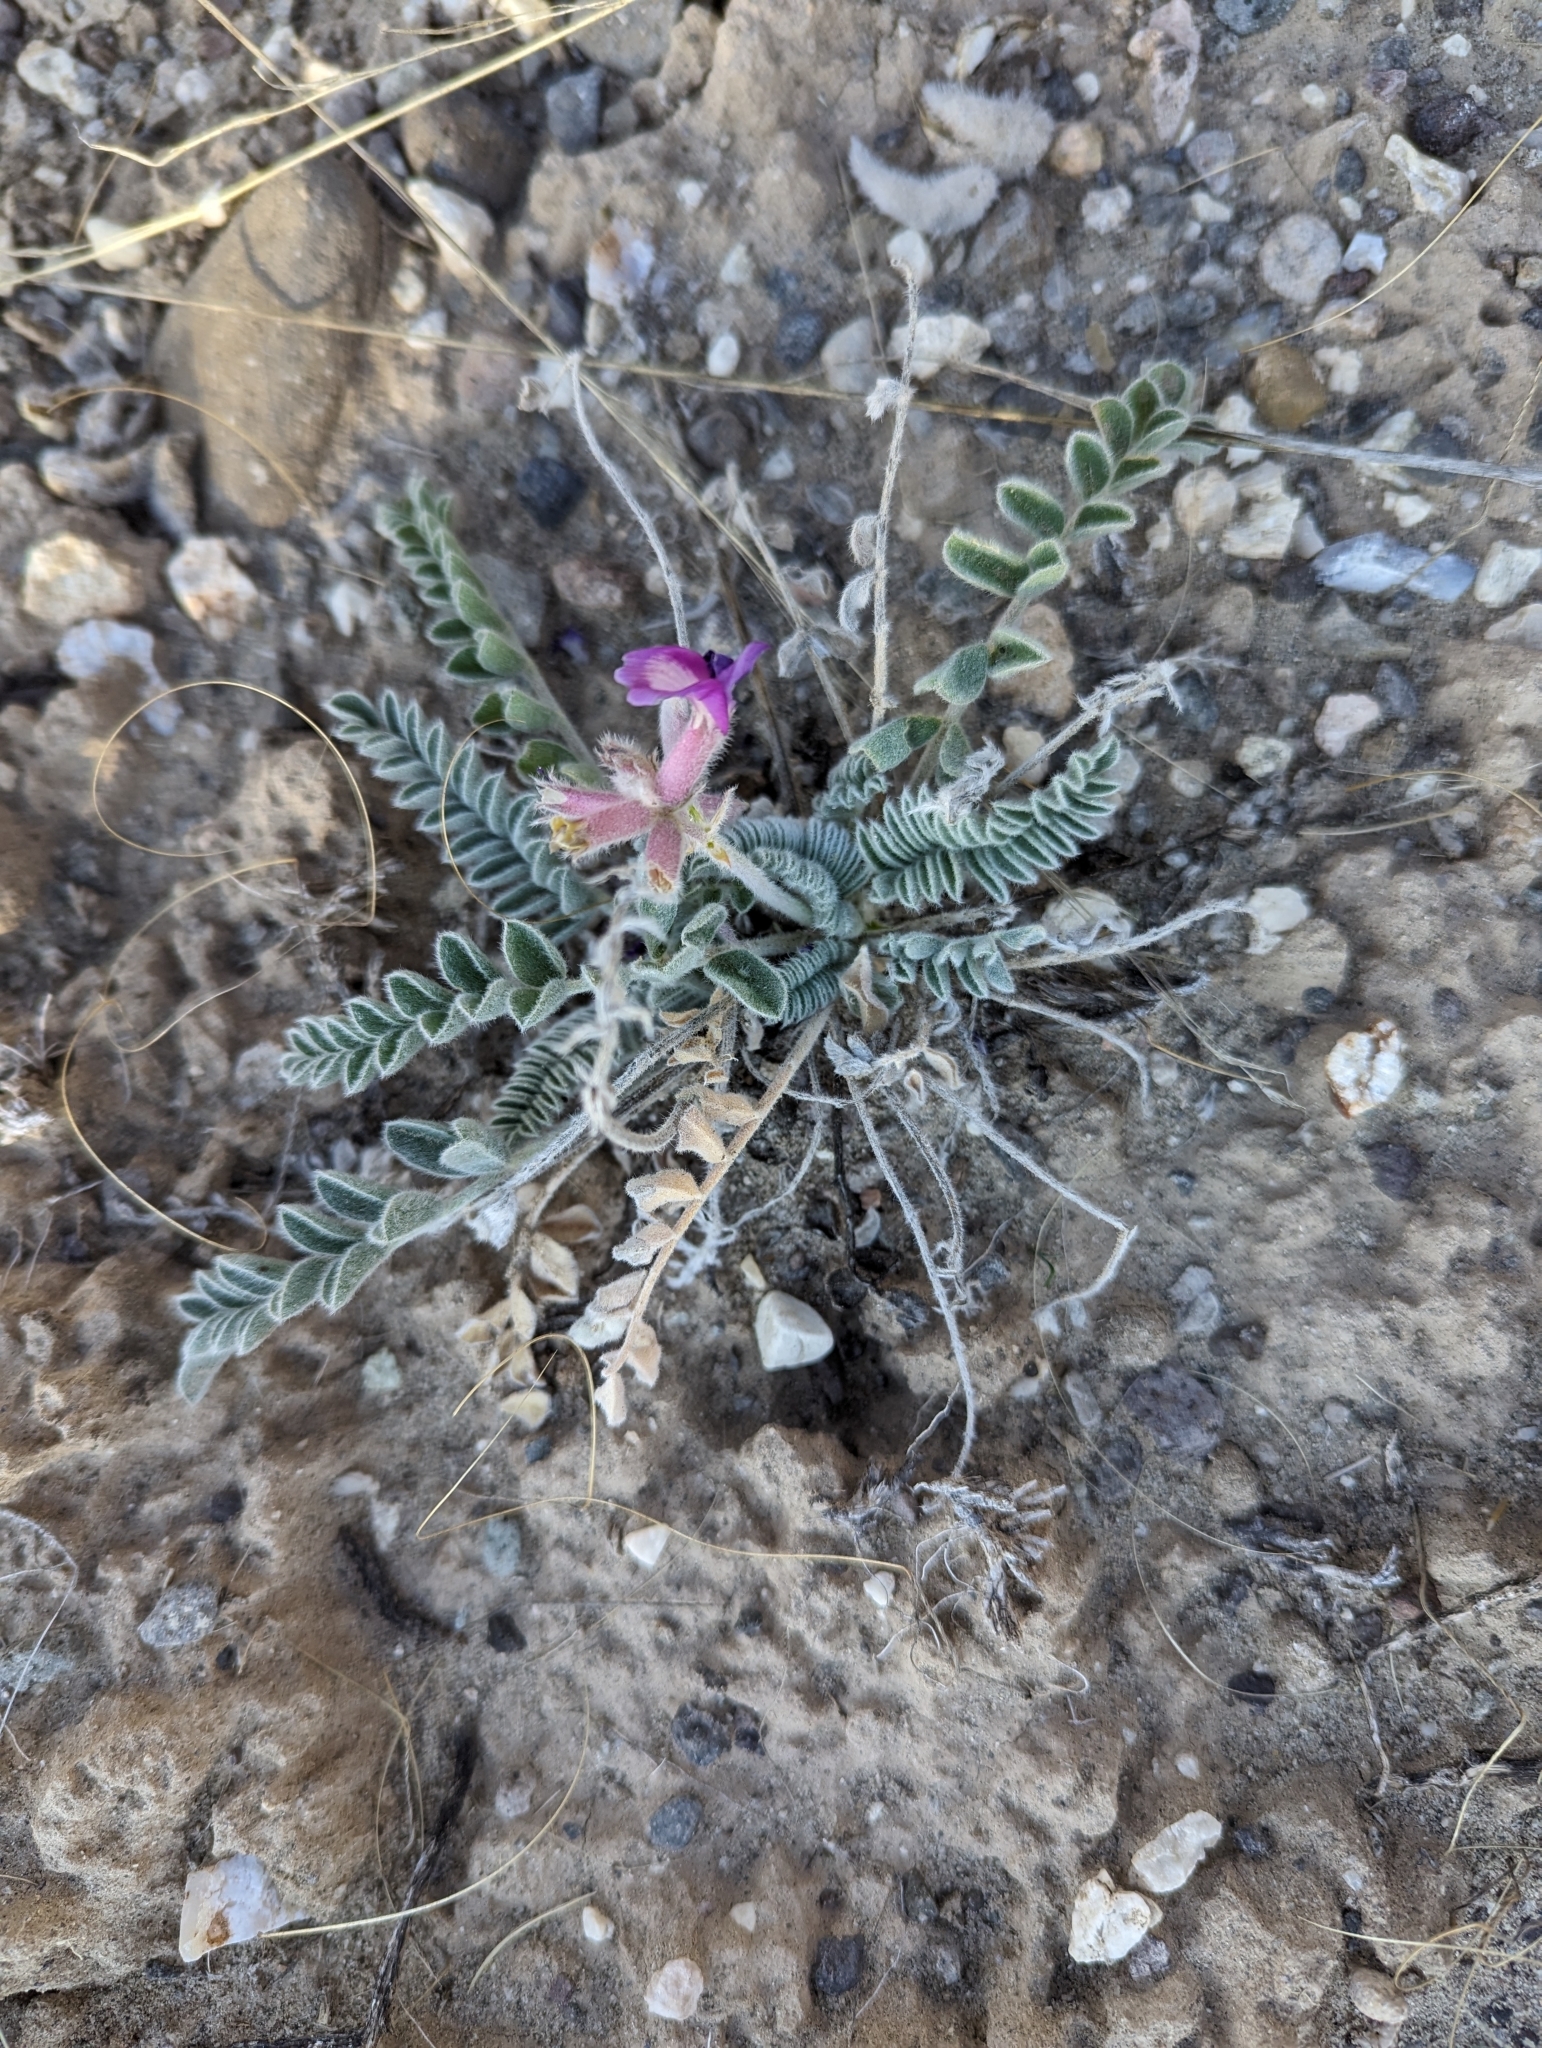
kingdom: Plantae
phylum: Tracheophyta
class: Magnoliopsida
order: Fabales
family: Fabaceae
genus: Astragalus
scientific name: Astragalus mollissimus
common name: Woolly locoweed
